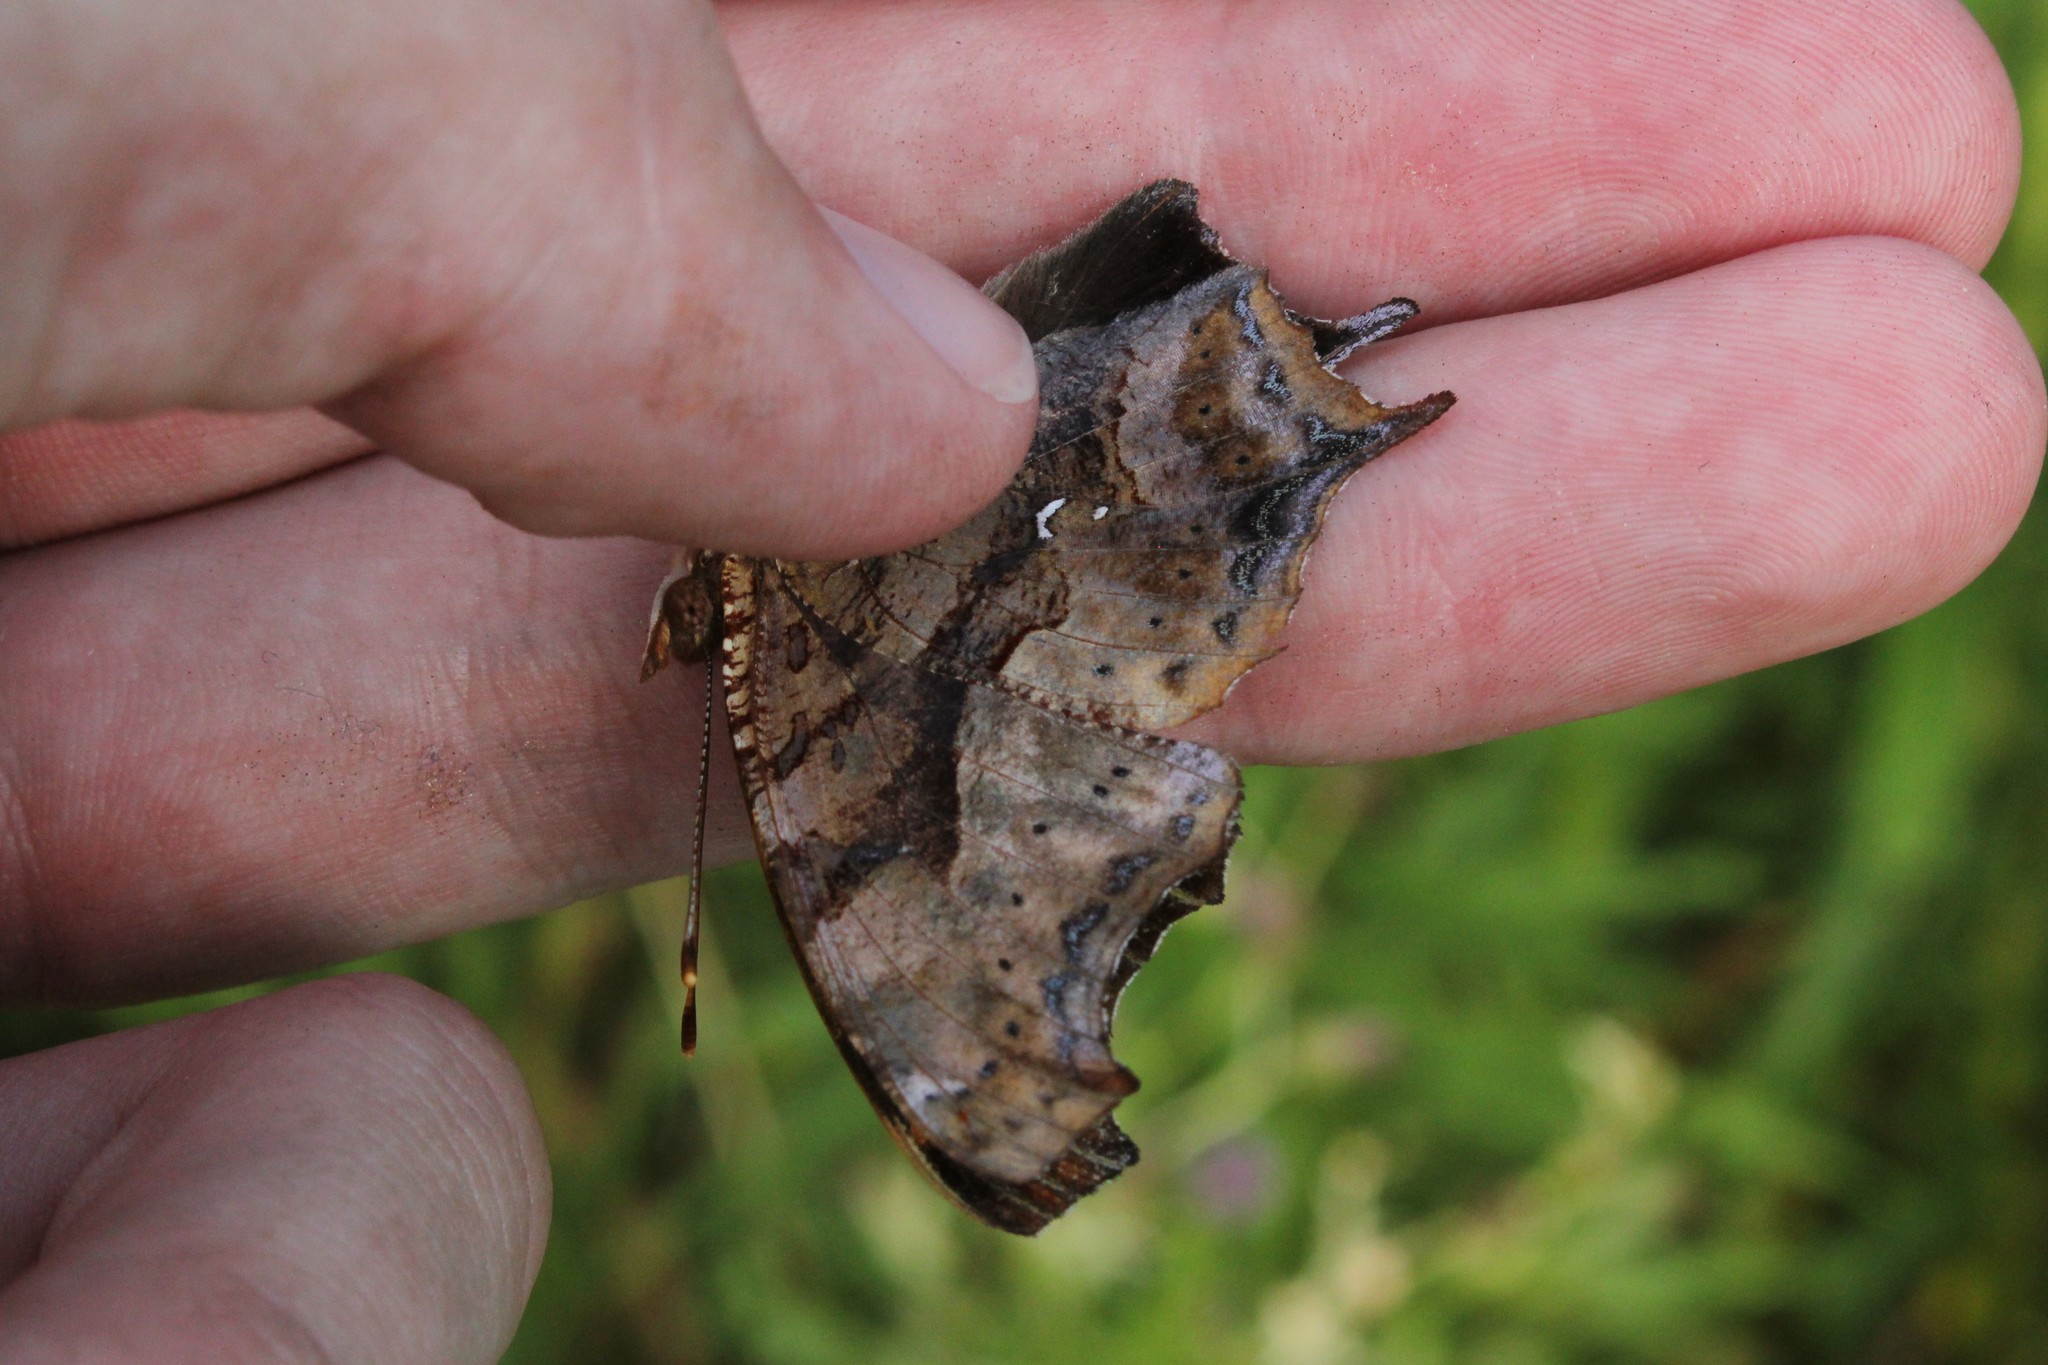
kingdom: Animalia
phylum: Arthropoda
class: Insecta
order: Lepidoptera
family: Nymphalidae
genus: Polygonia
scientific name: Polygonia interrogationis
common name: Question mark
